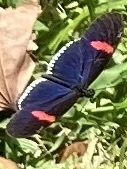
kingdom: Animalia
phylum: Arthropoda
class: Insecta
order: Lepidoptera
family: Nymphalidae
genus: Heliconius
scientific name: Heliconius erato
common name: Common patch longwing
